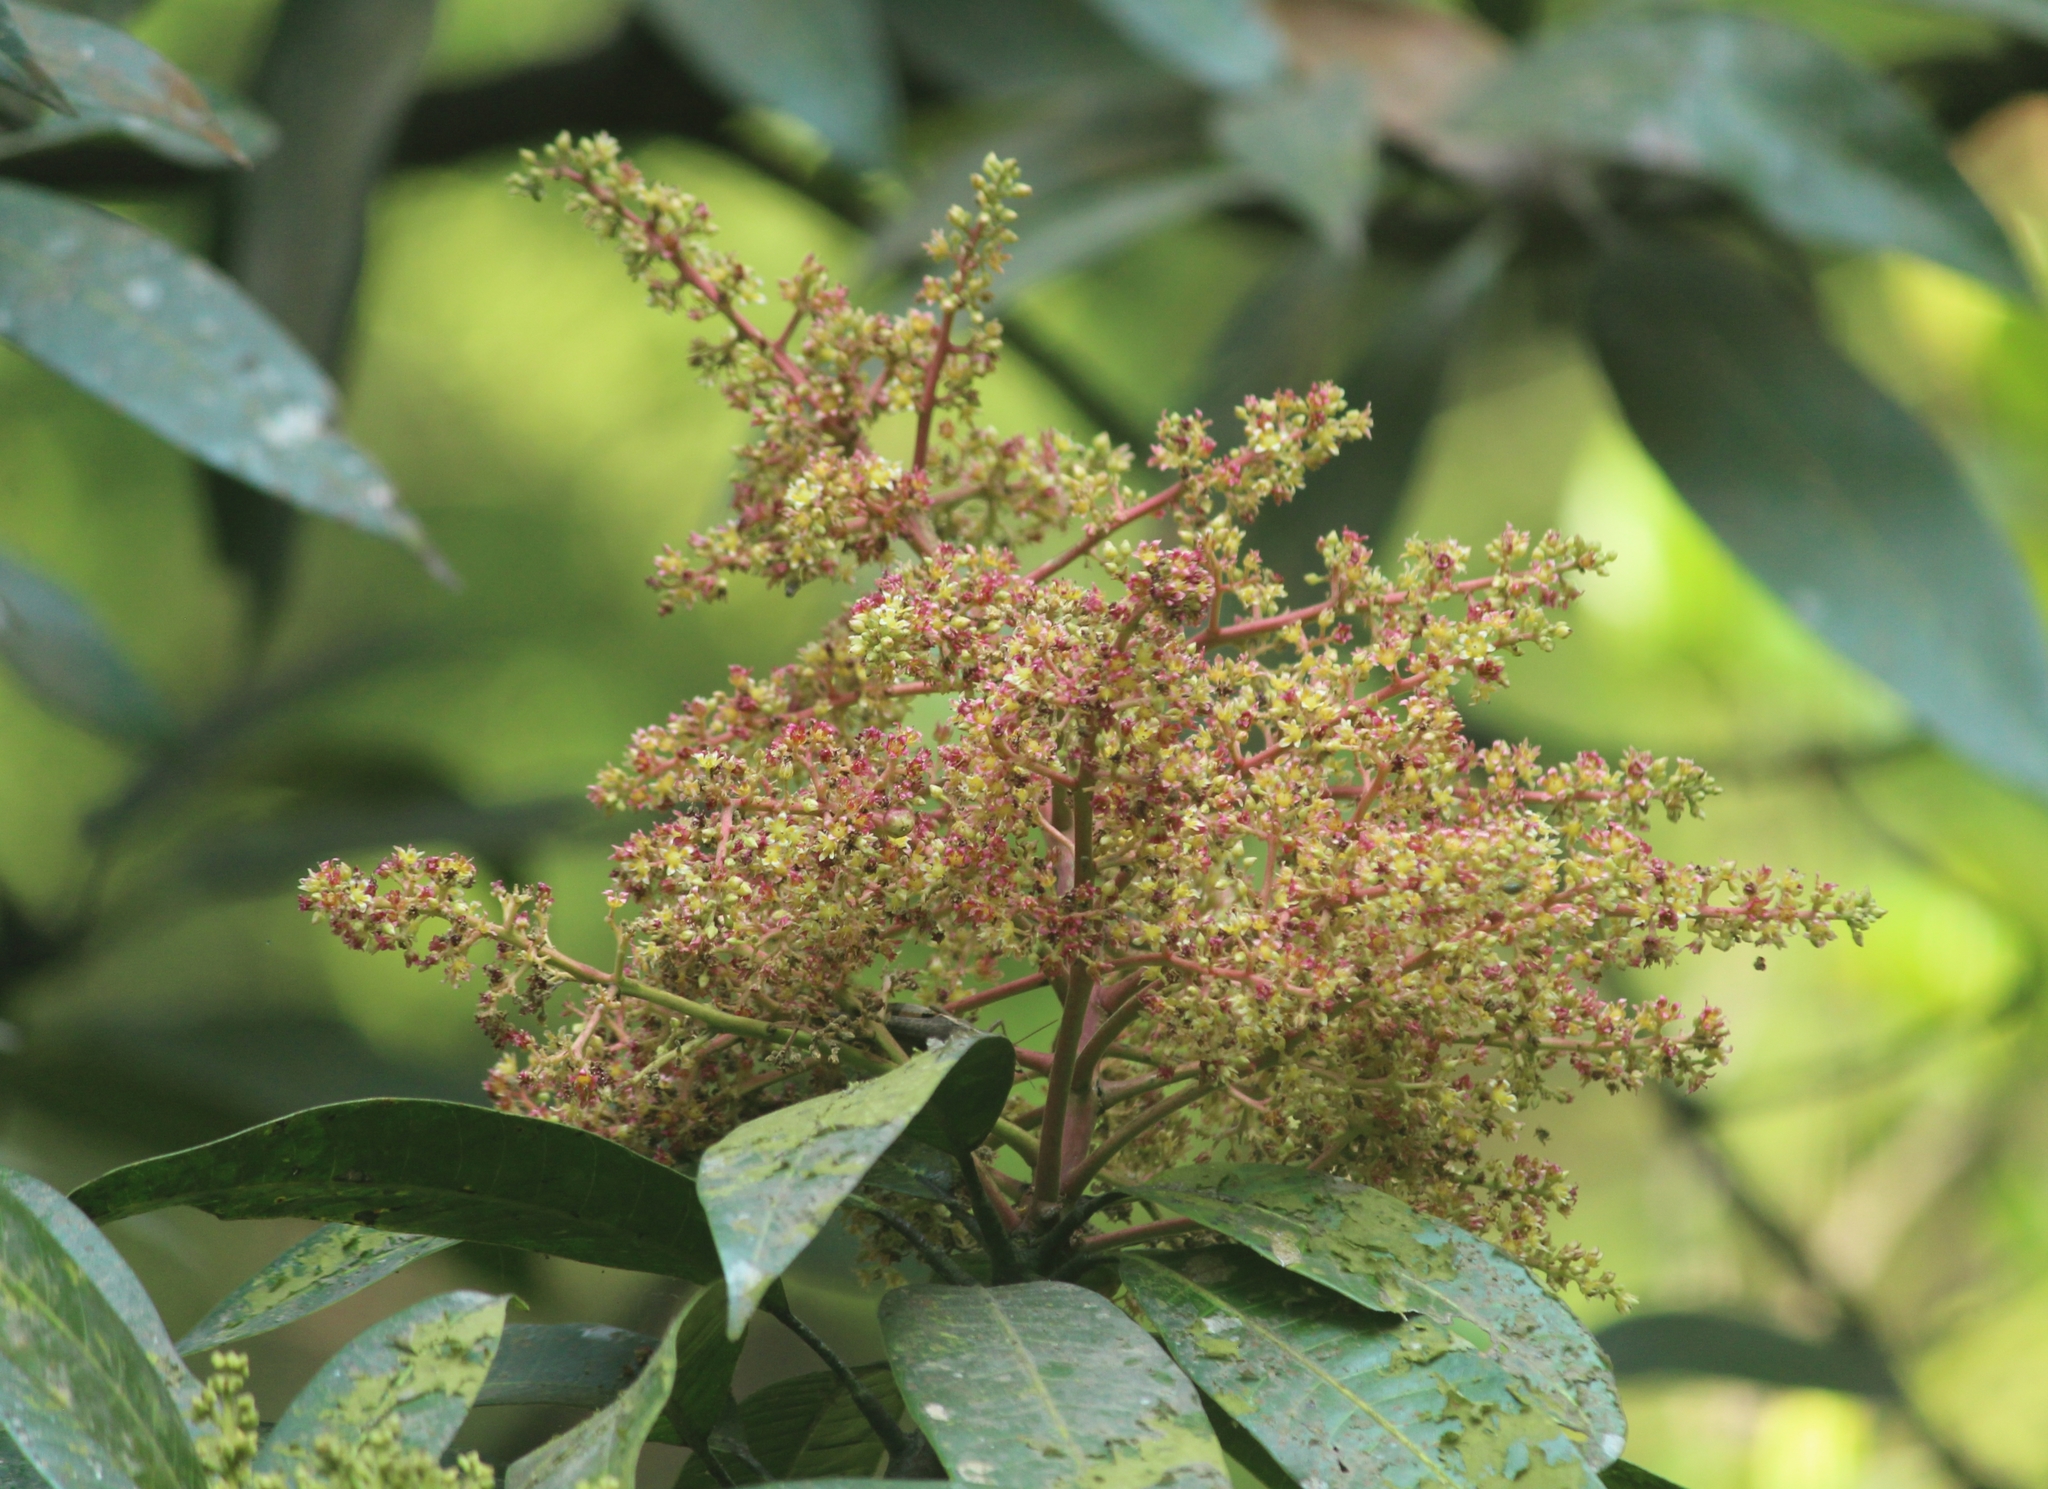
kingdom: Plantae
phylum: Tracheophyta
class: Magnoliopsida
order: Sapindales
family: Anacardiaceae
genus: Mangifera
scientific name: Mangifera indica
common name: Mango
